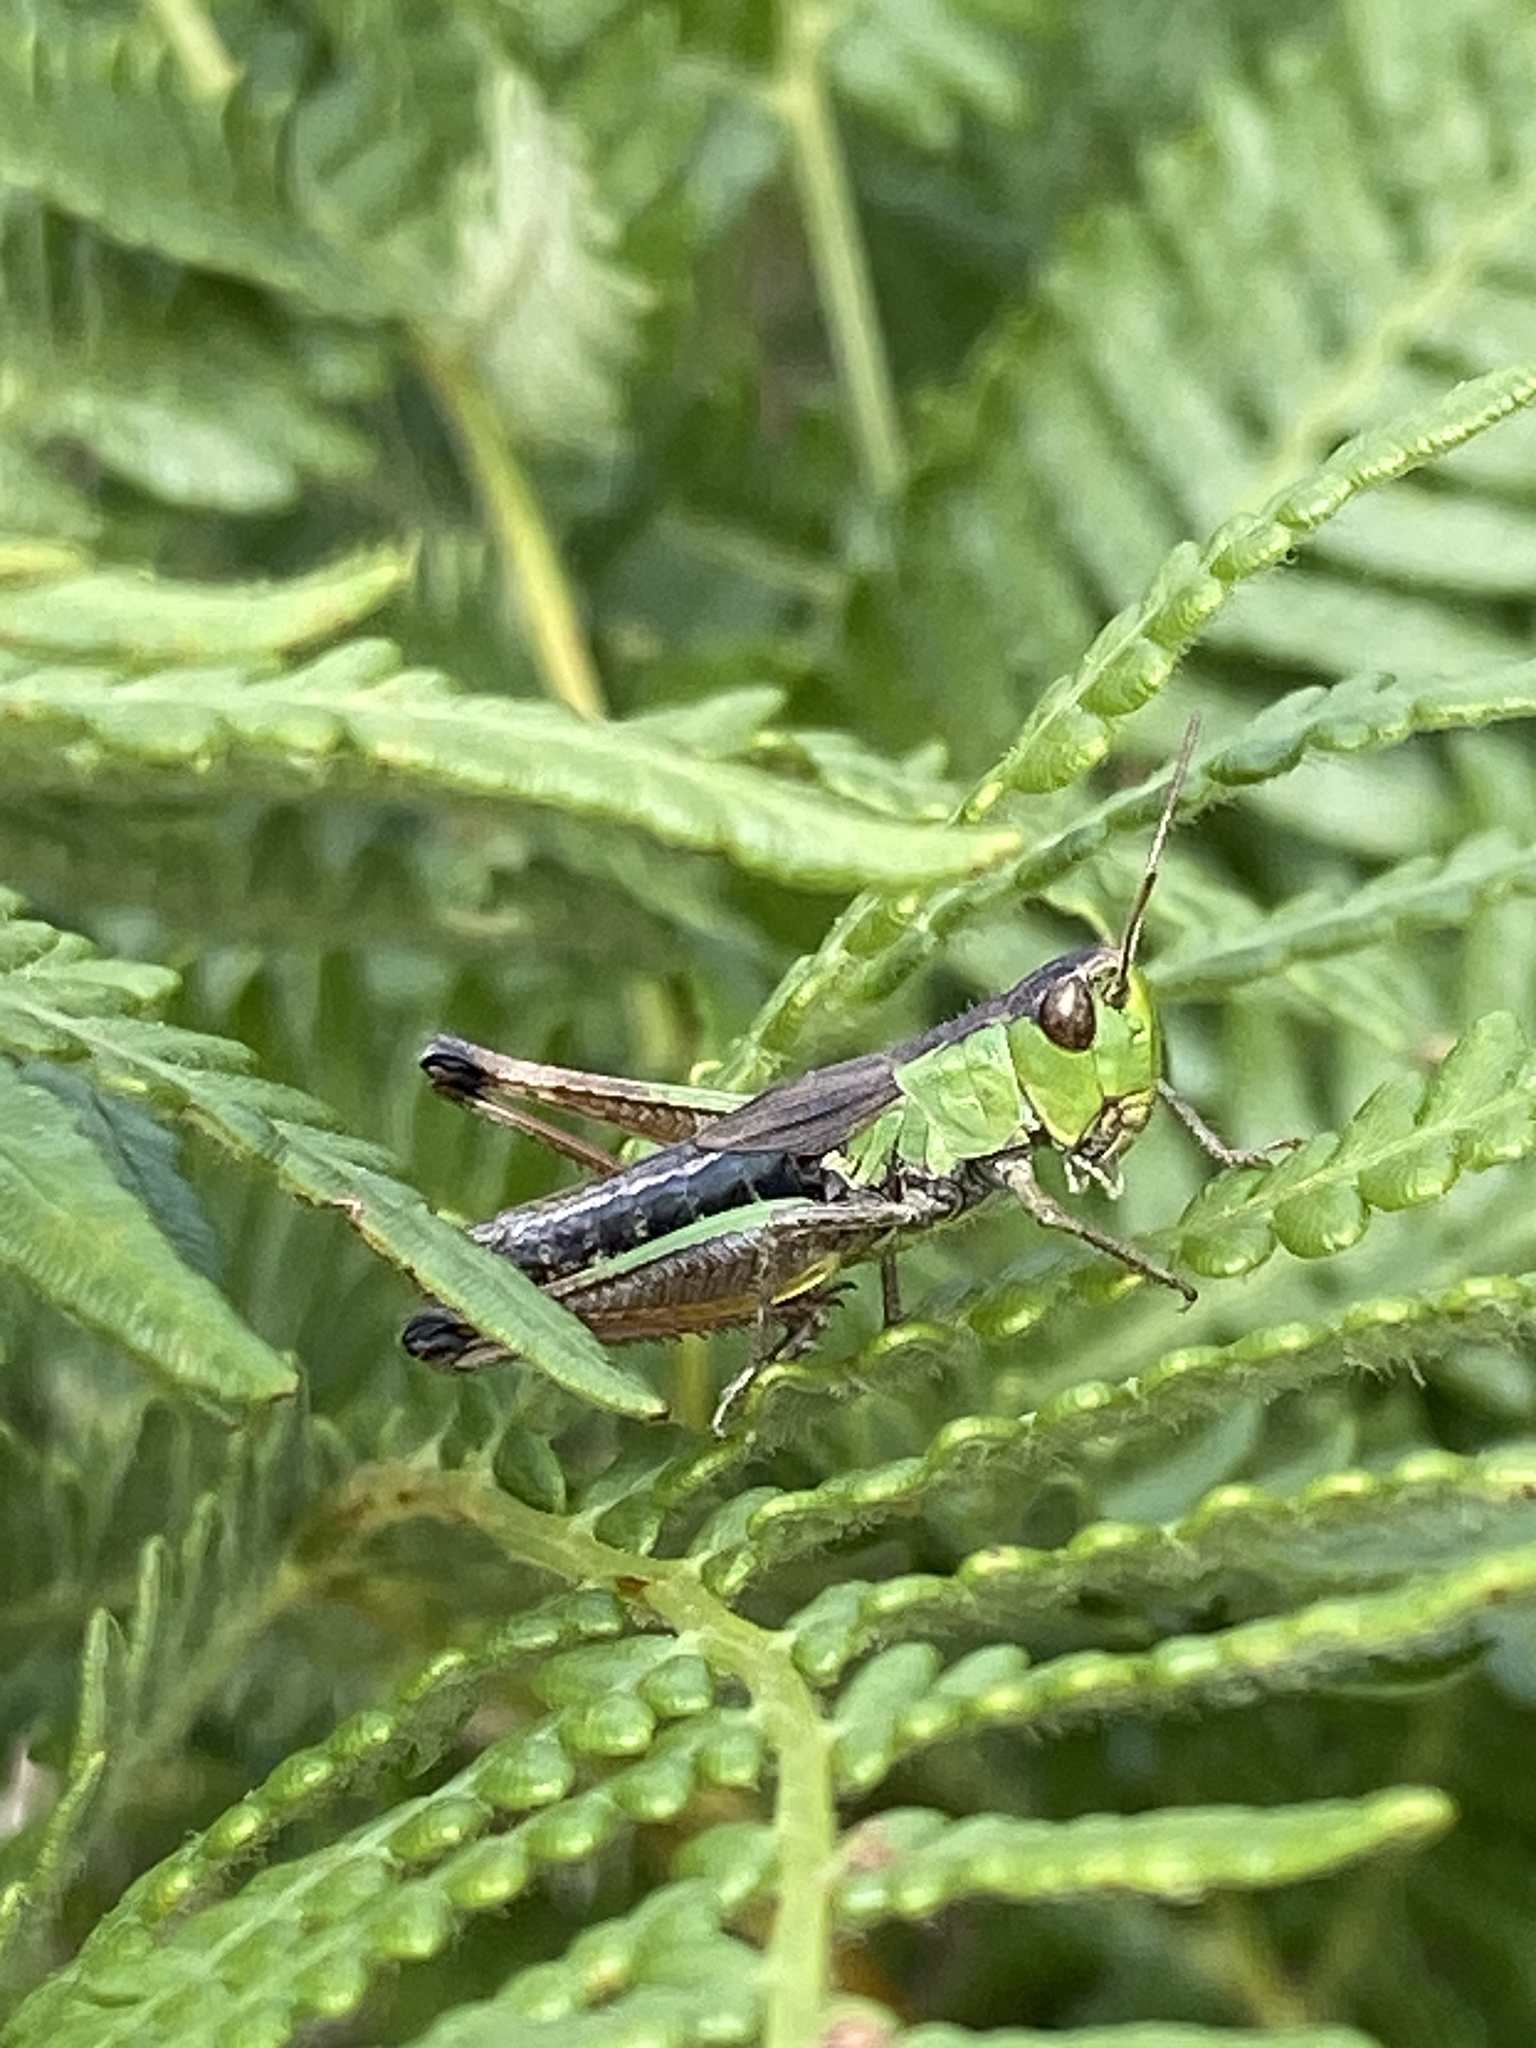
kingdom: Animalia
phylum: Arthropoda
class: Insecta
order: Orthoptera
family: Acrididae
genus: Pseudochorthippus
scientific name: Pseudochorthippus parallelus
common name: Meadow grasshopper
